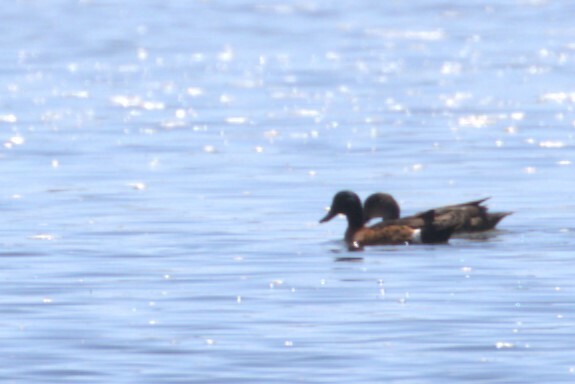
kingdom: Animalia
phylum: Chordata
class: Aves
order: Anseriformes
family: Anatidae
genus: Anas
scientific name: Anas castanea
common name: Chestnut teal
